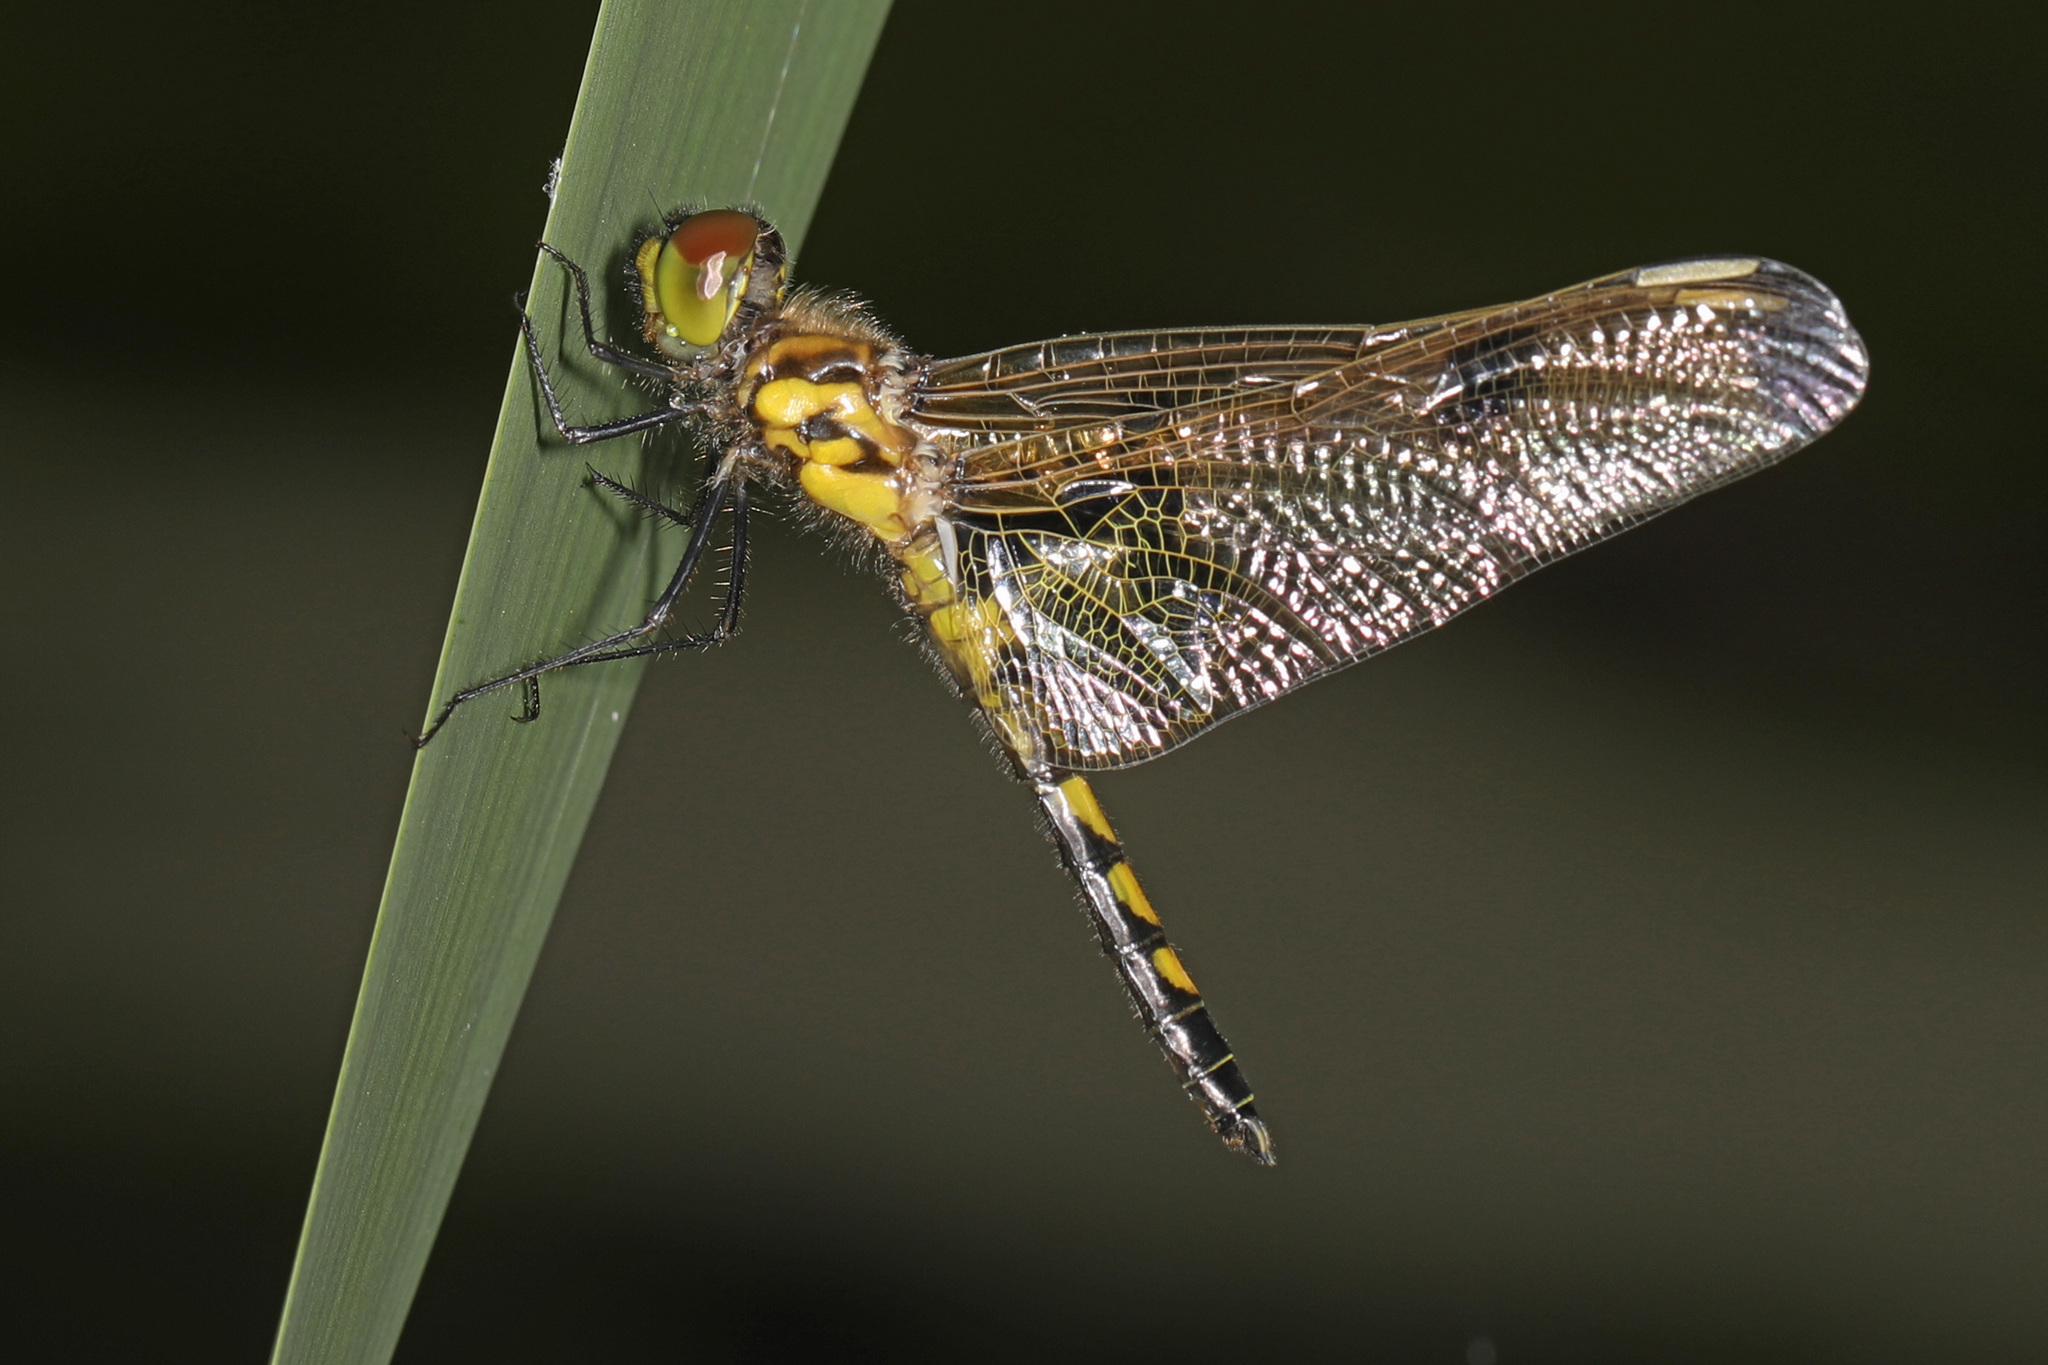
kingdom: Animalia
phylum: Arthropoda
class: Insecta
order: Odonata
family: Libellulidae
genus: Celithemis
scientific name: Celithemis elisa
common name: Calico pennant
